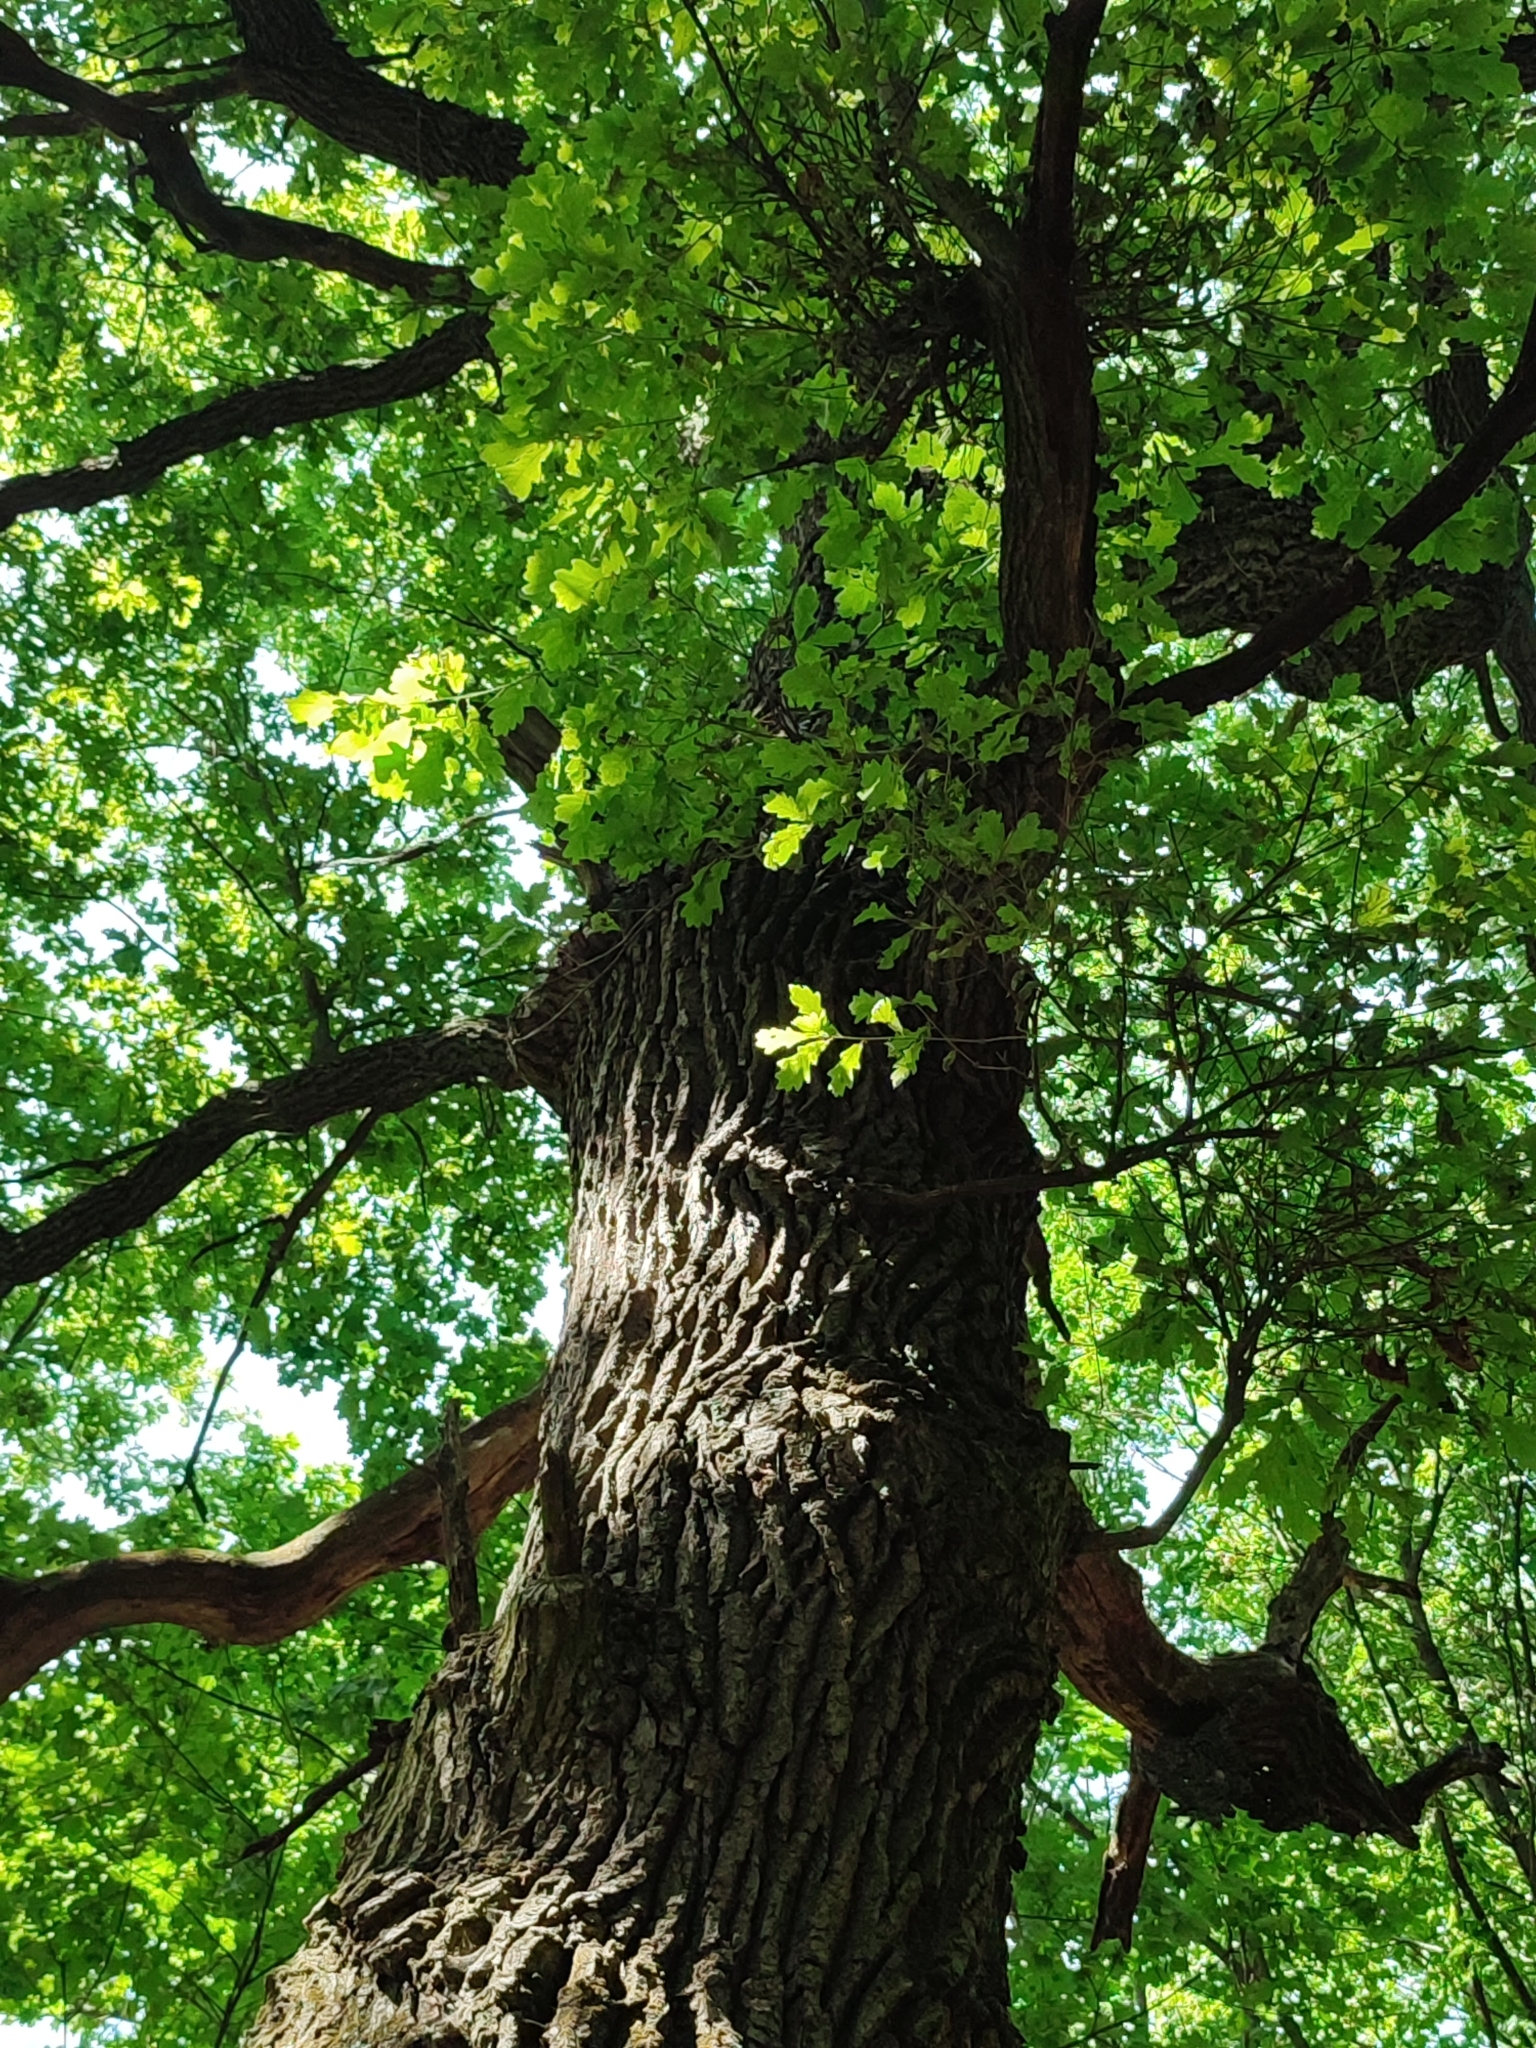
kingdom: Plantae
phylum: Tracheophyta
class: Magnoliopsida
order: Fagales
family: Fagaceae
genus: Quercus
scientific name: Quercus robur
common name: Pedunculate oak
